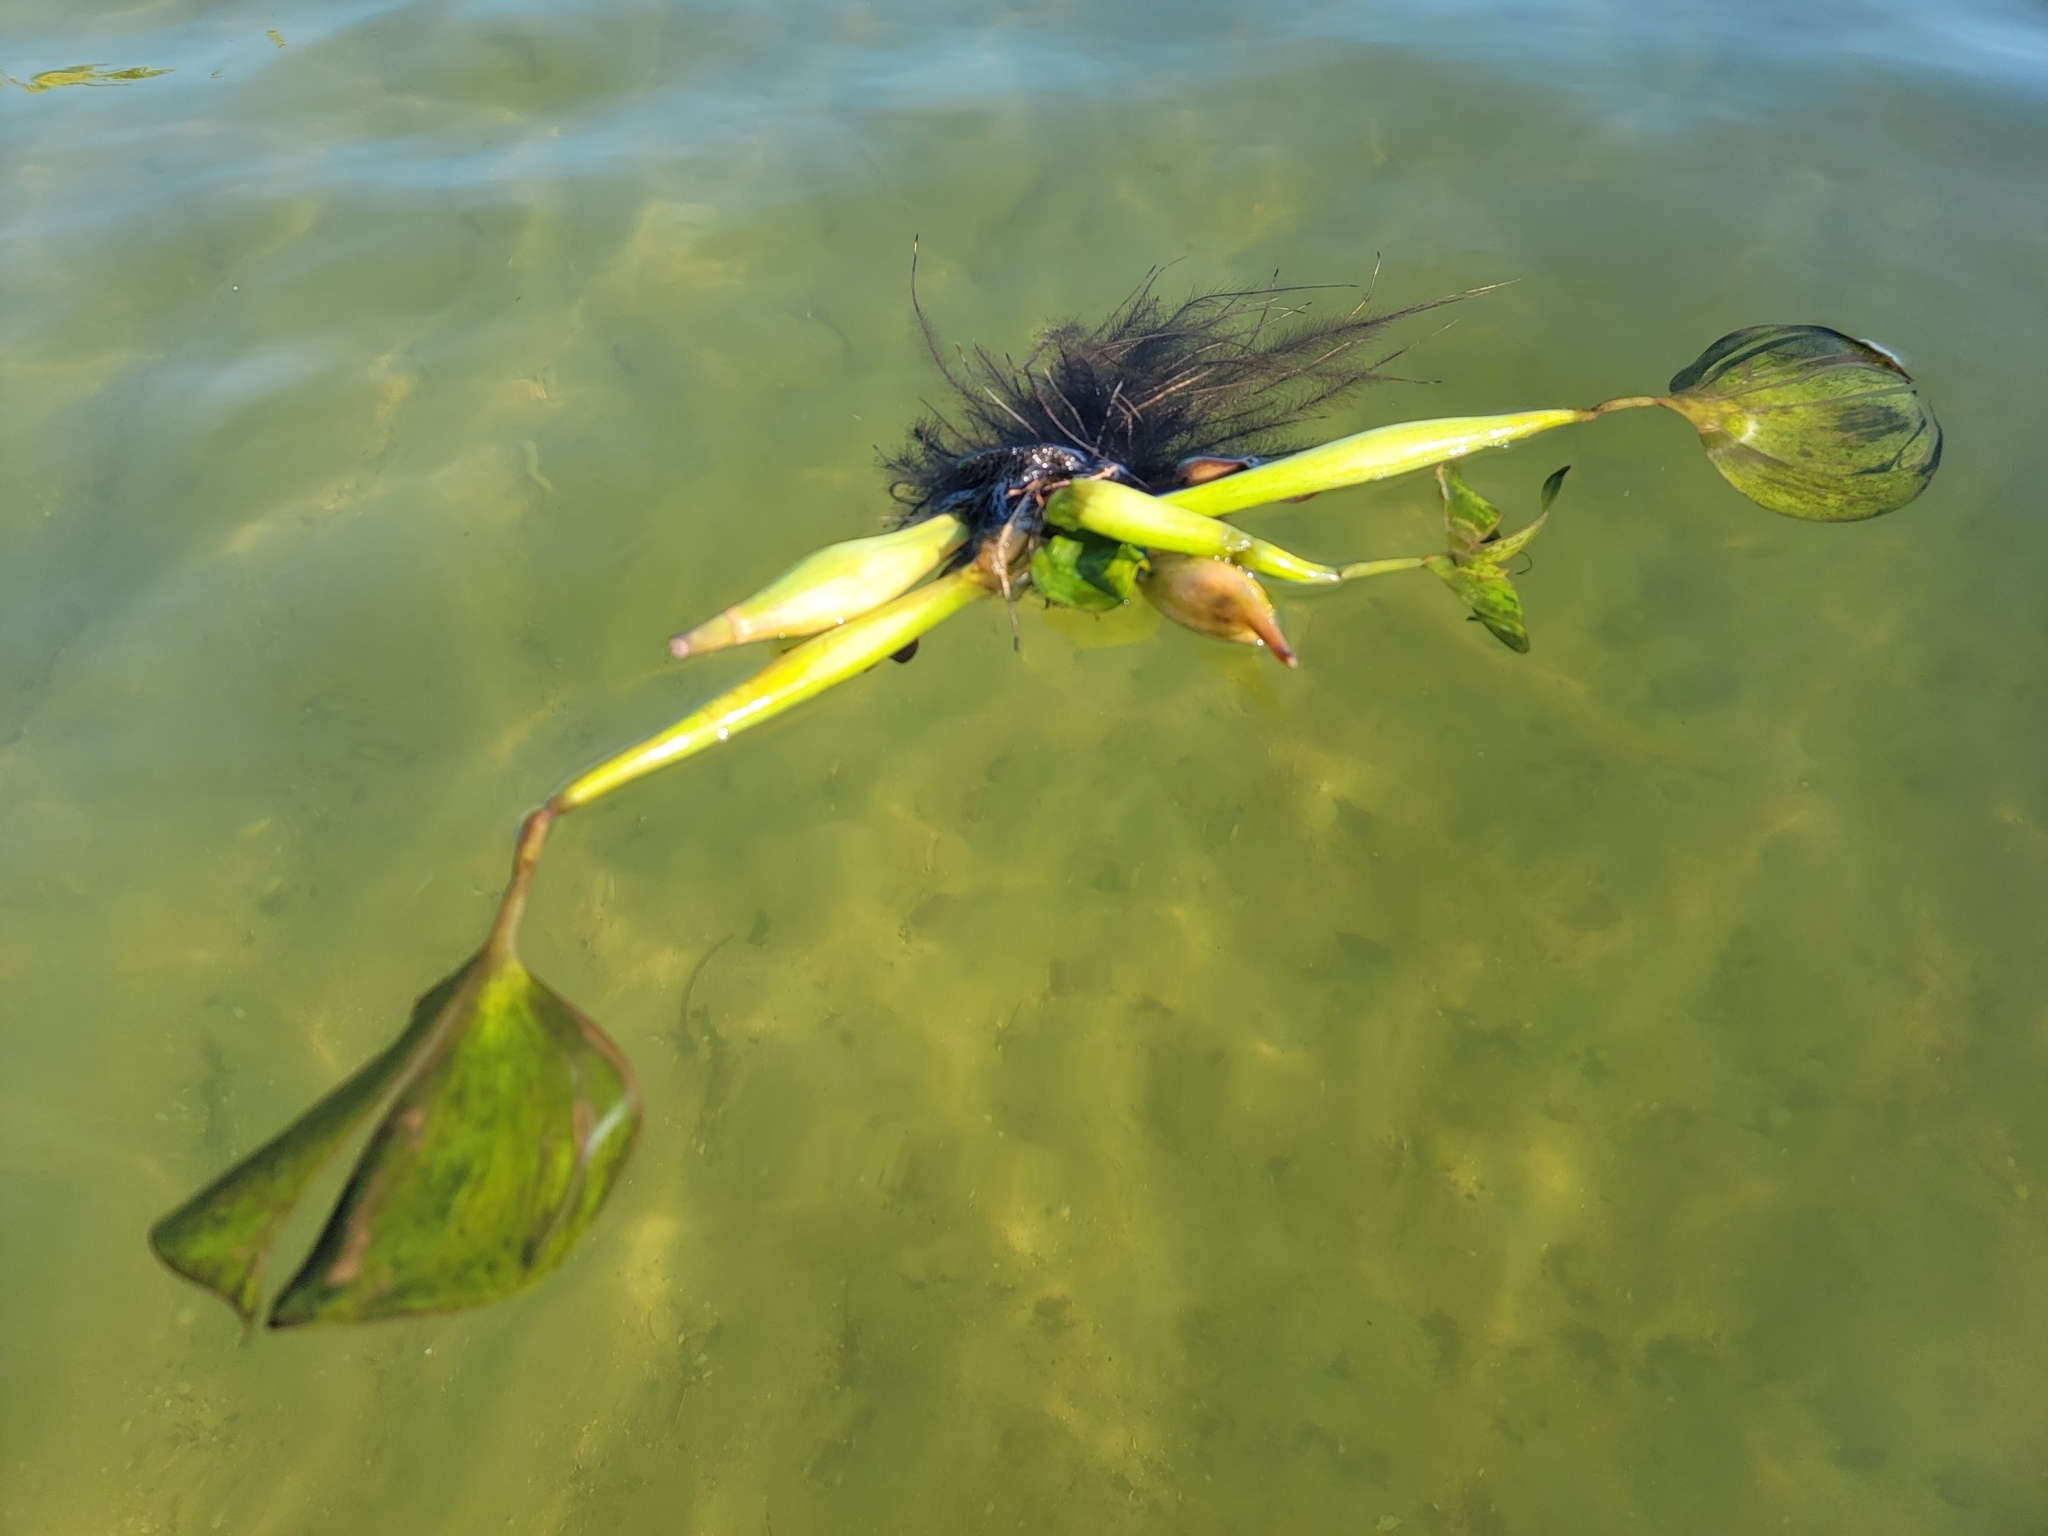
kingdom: Plantae
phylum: Tracheophyta
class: Liliopsida
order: Commelinales
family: Pontederiaceae
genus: Pontederia
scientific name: Pontederia crassipes
